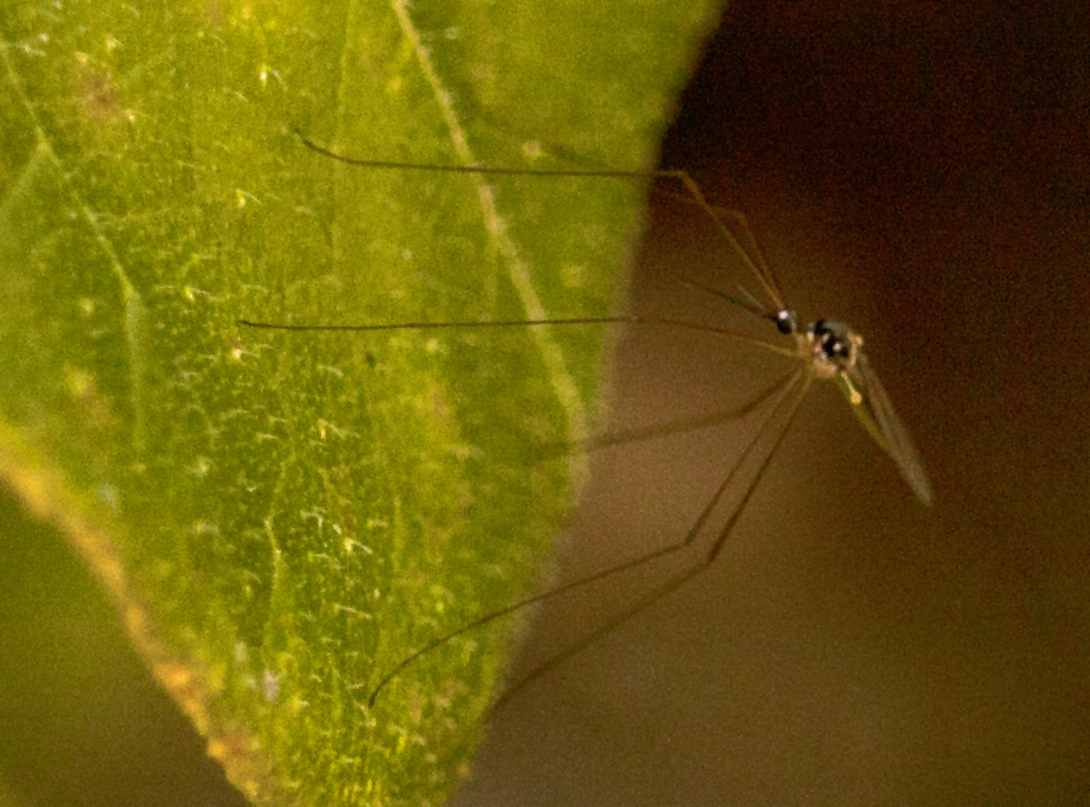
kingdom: Animalia
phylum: Arthropoda
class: Insecta
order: Diptera
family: Limoniidae
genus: Geranomyia
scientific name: Geranomyia nigronitida
